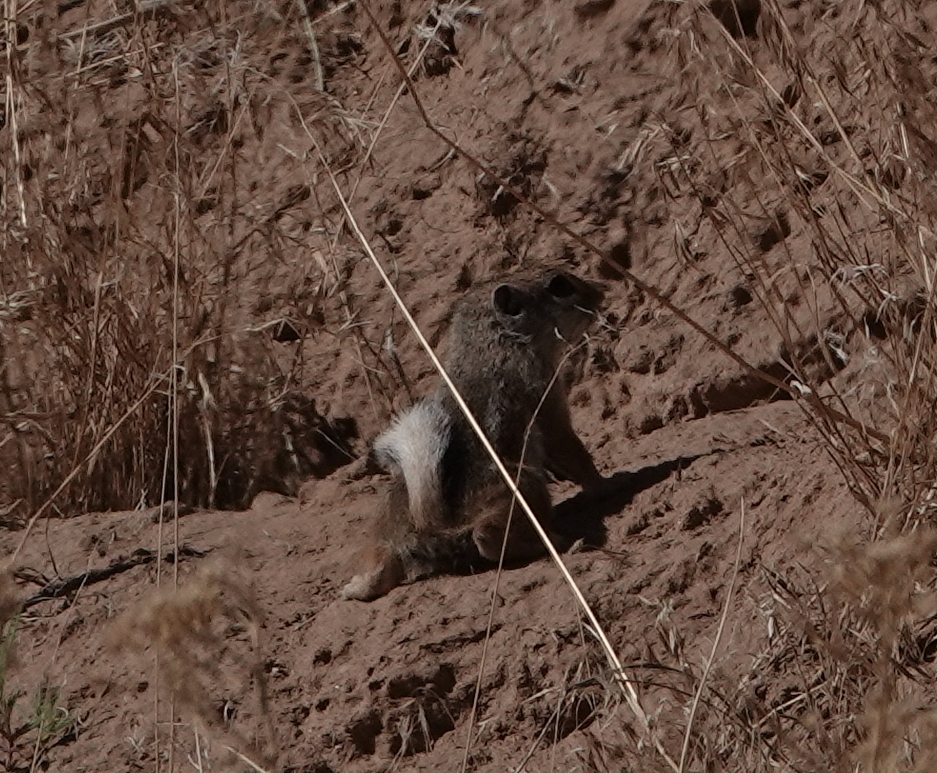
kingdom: Animalia
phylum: Chordata
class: Mammalia
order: Rodentia
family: Sciuridae
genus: Ammospermophilus
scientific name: Ammospermophilus leucurus
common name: White-tailed antelope squirrel
